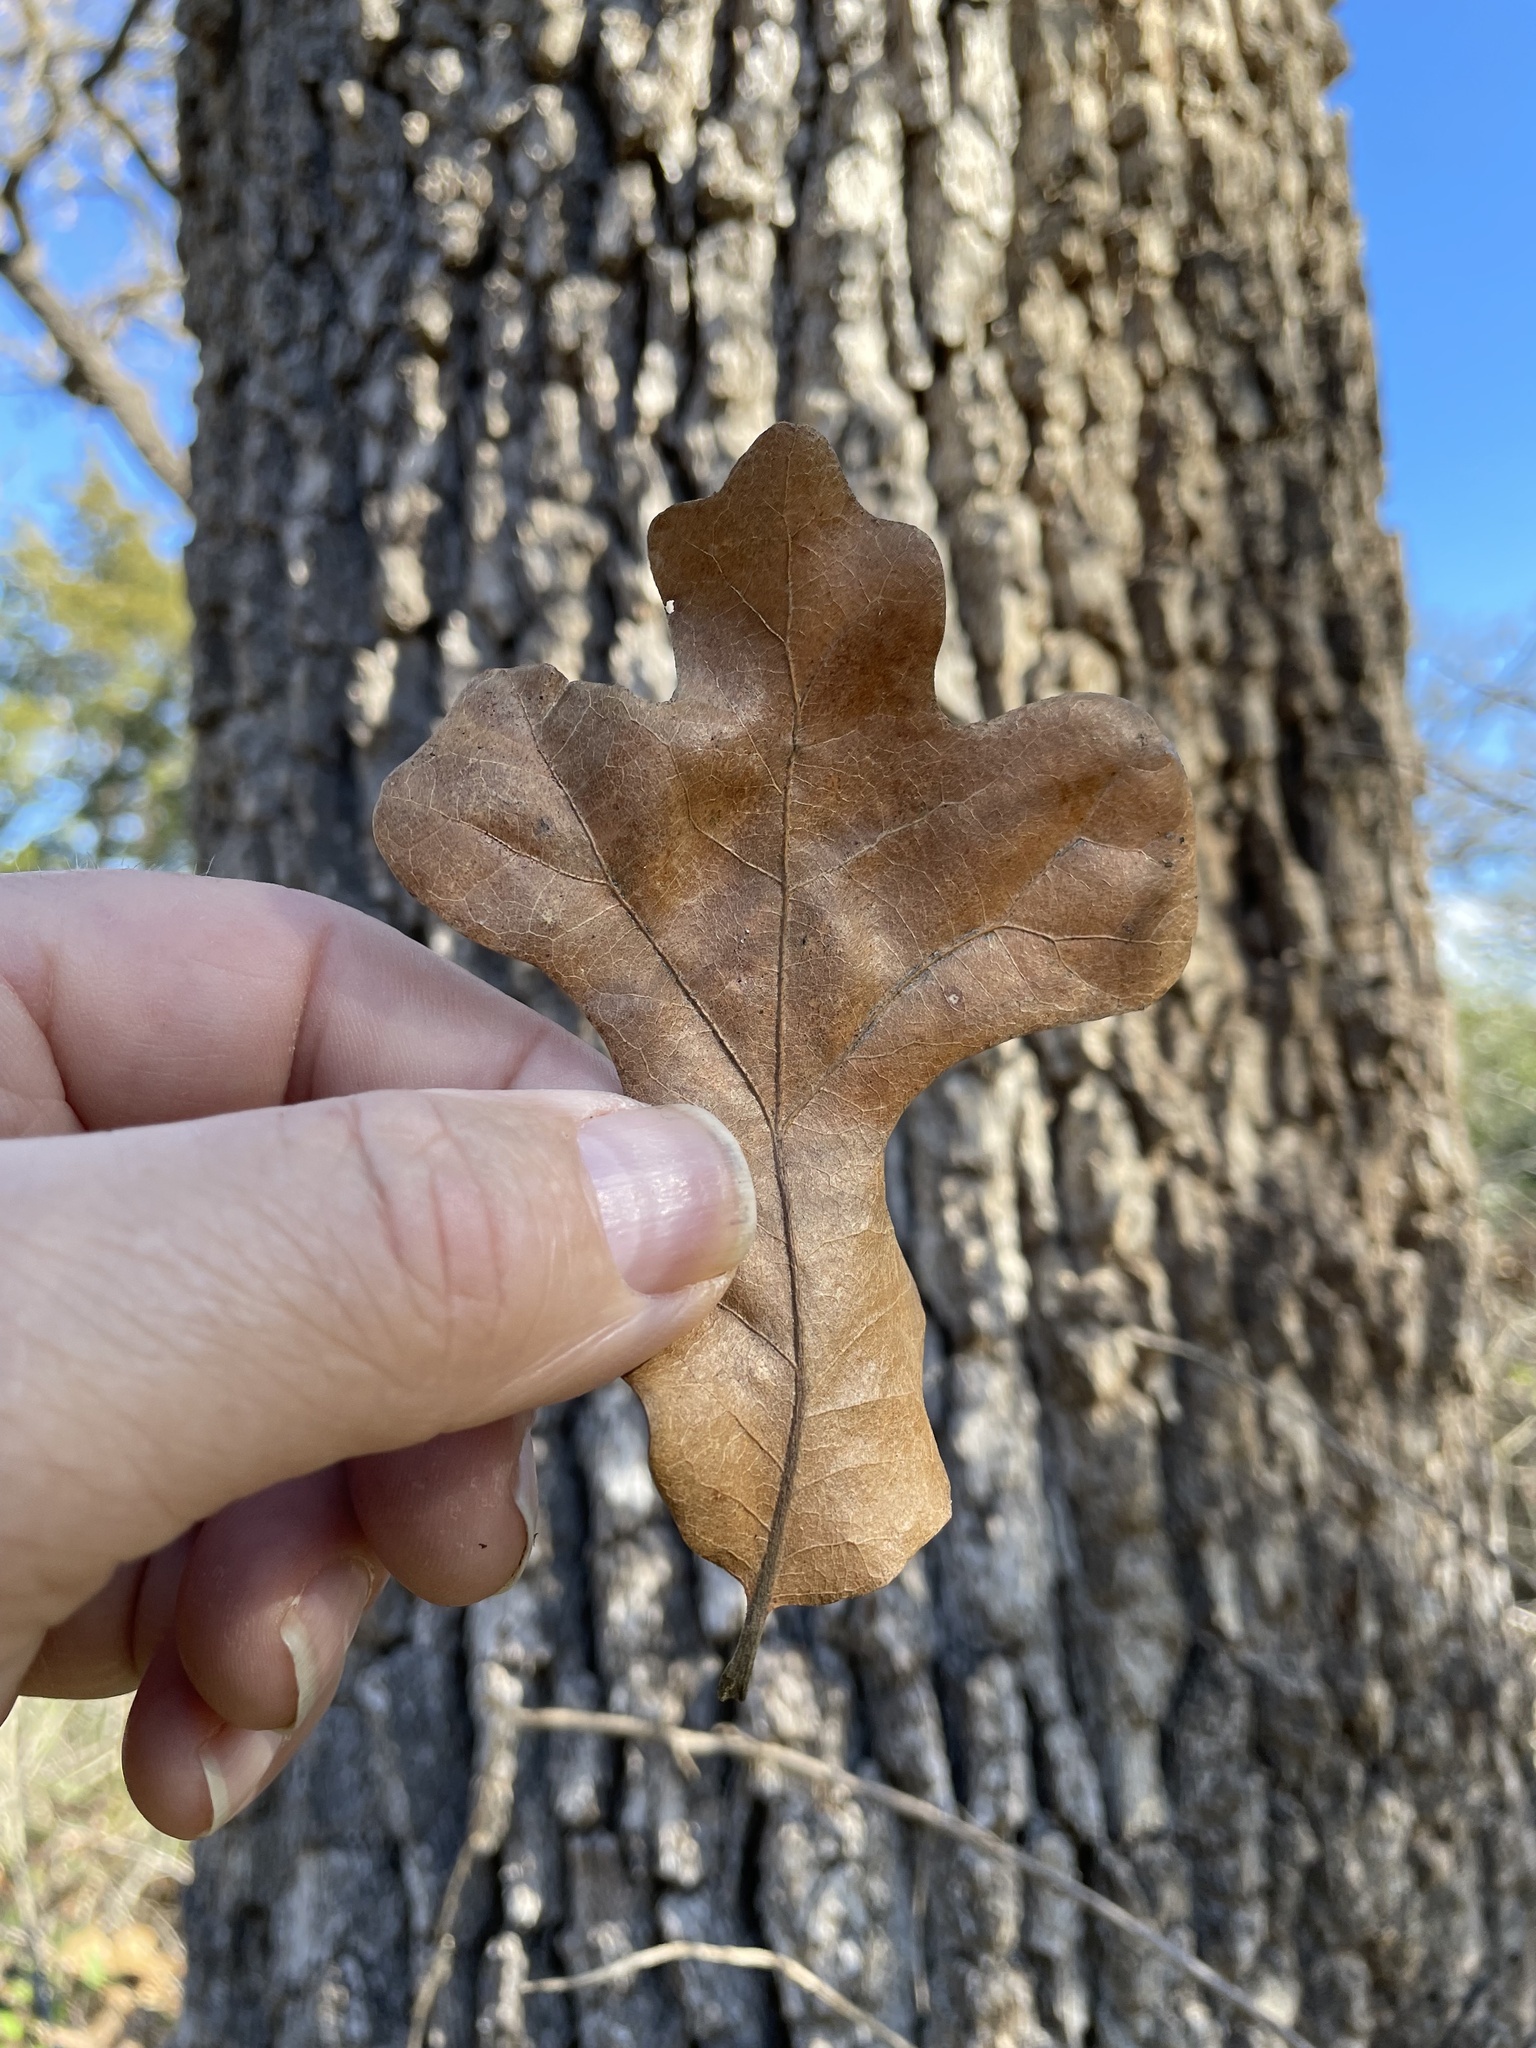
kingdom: Plantae
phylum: Tracheophyta
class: Magnoliopsida
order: Fagales
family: Fagaceae
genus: Quercus
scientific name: Quercus stellata
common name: Post oak
